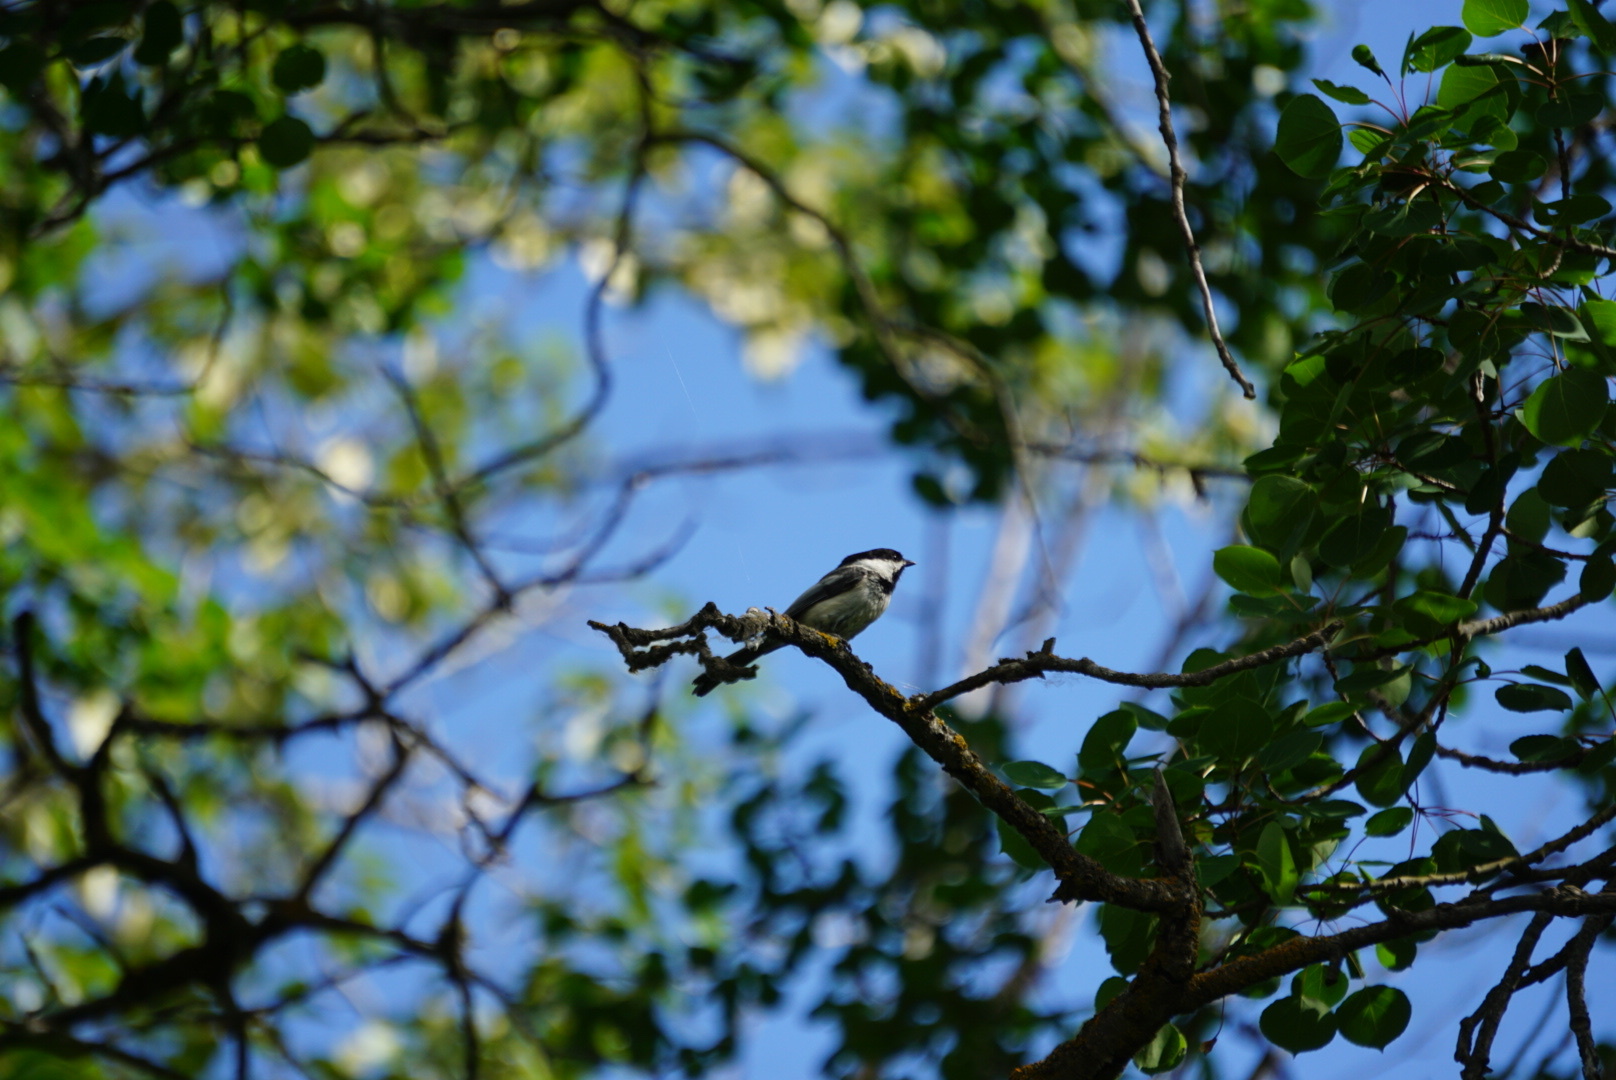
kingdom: Animalia
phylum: Chordata
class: Aves
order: Passeriformes
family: Paridae
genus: Poecile
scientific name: Poecile atricapillus
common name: Black-capped chickadee
